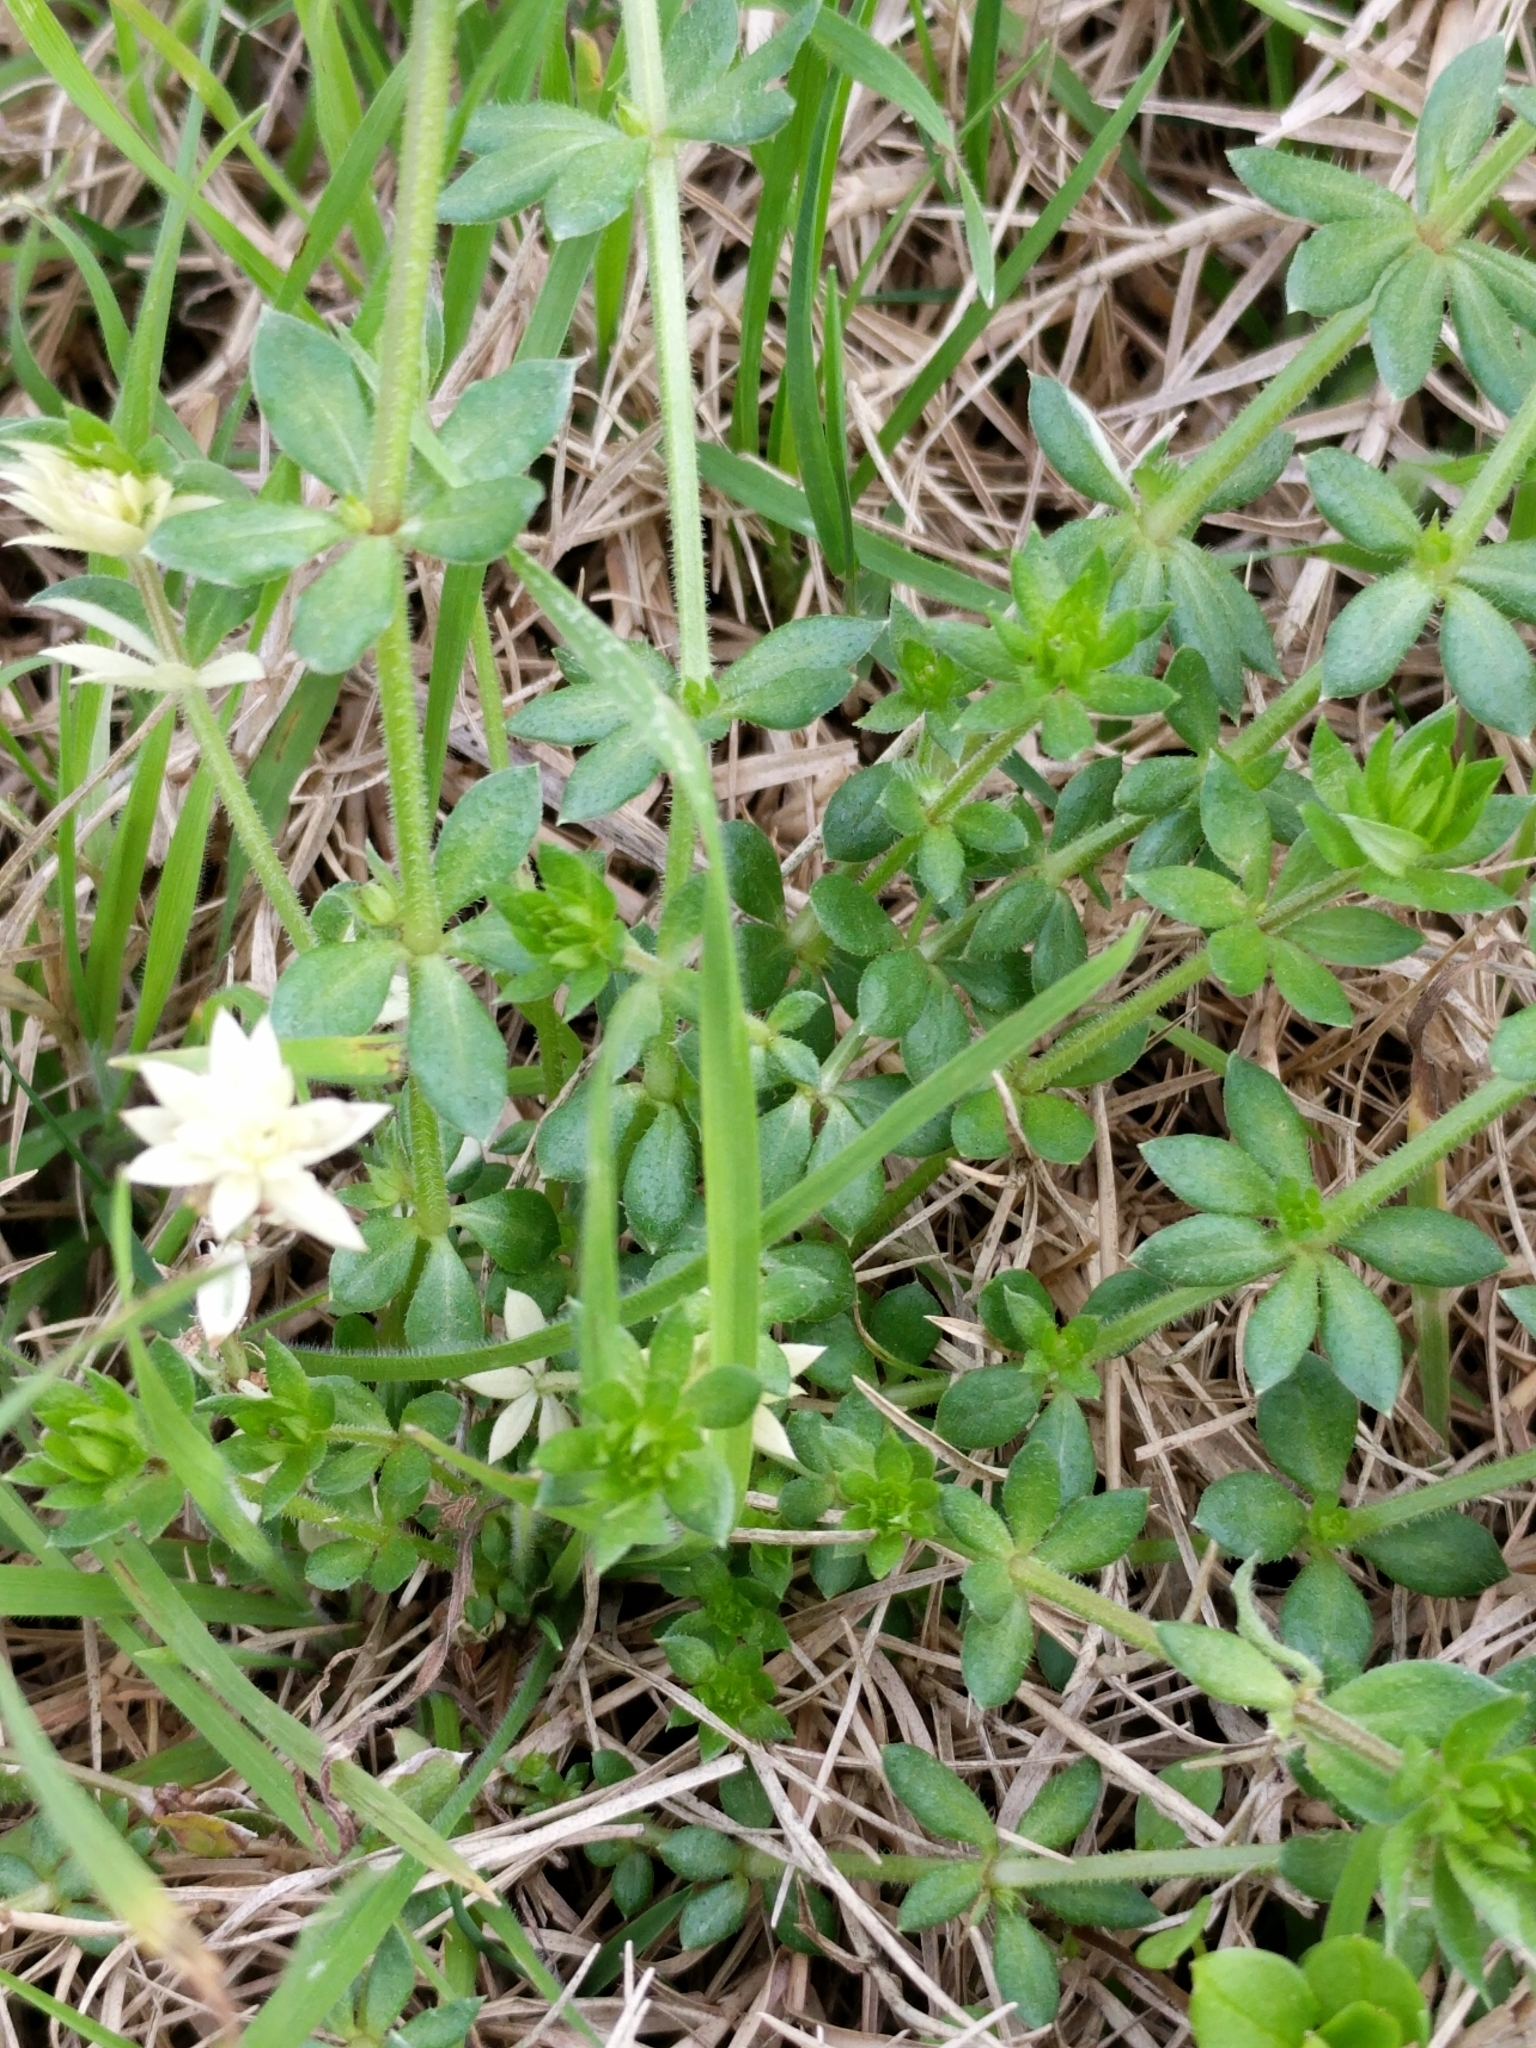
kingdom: Plantae
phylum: Tracheophyta
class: Magnoliopsida
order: Gentianales
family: Rubiaceae
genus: Sherardia
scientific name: Sherardia arvensis
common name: Field madder
